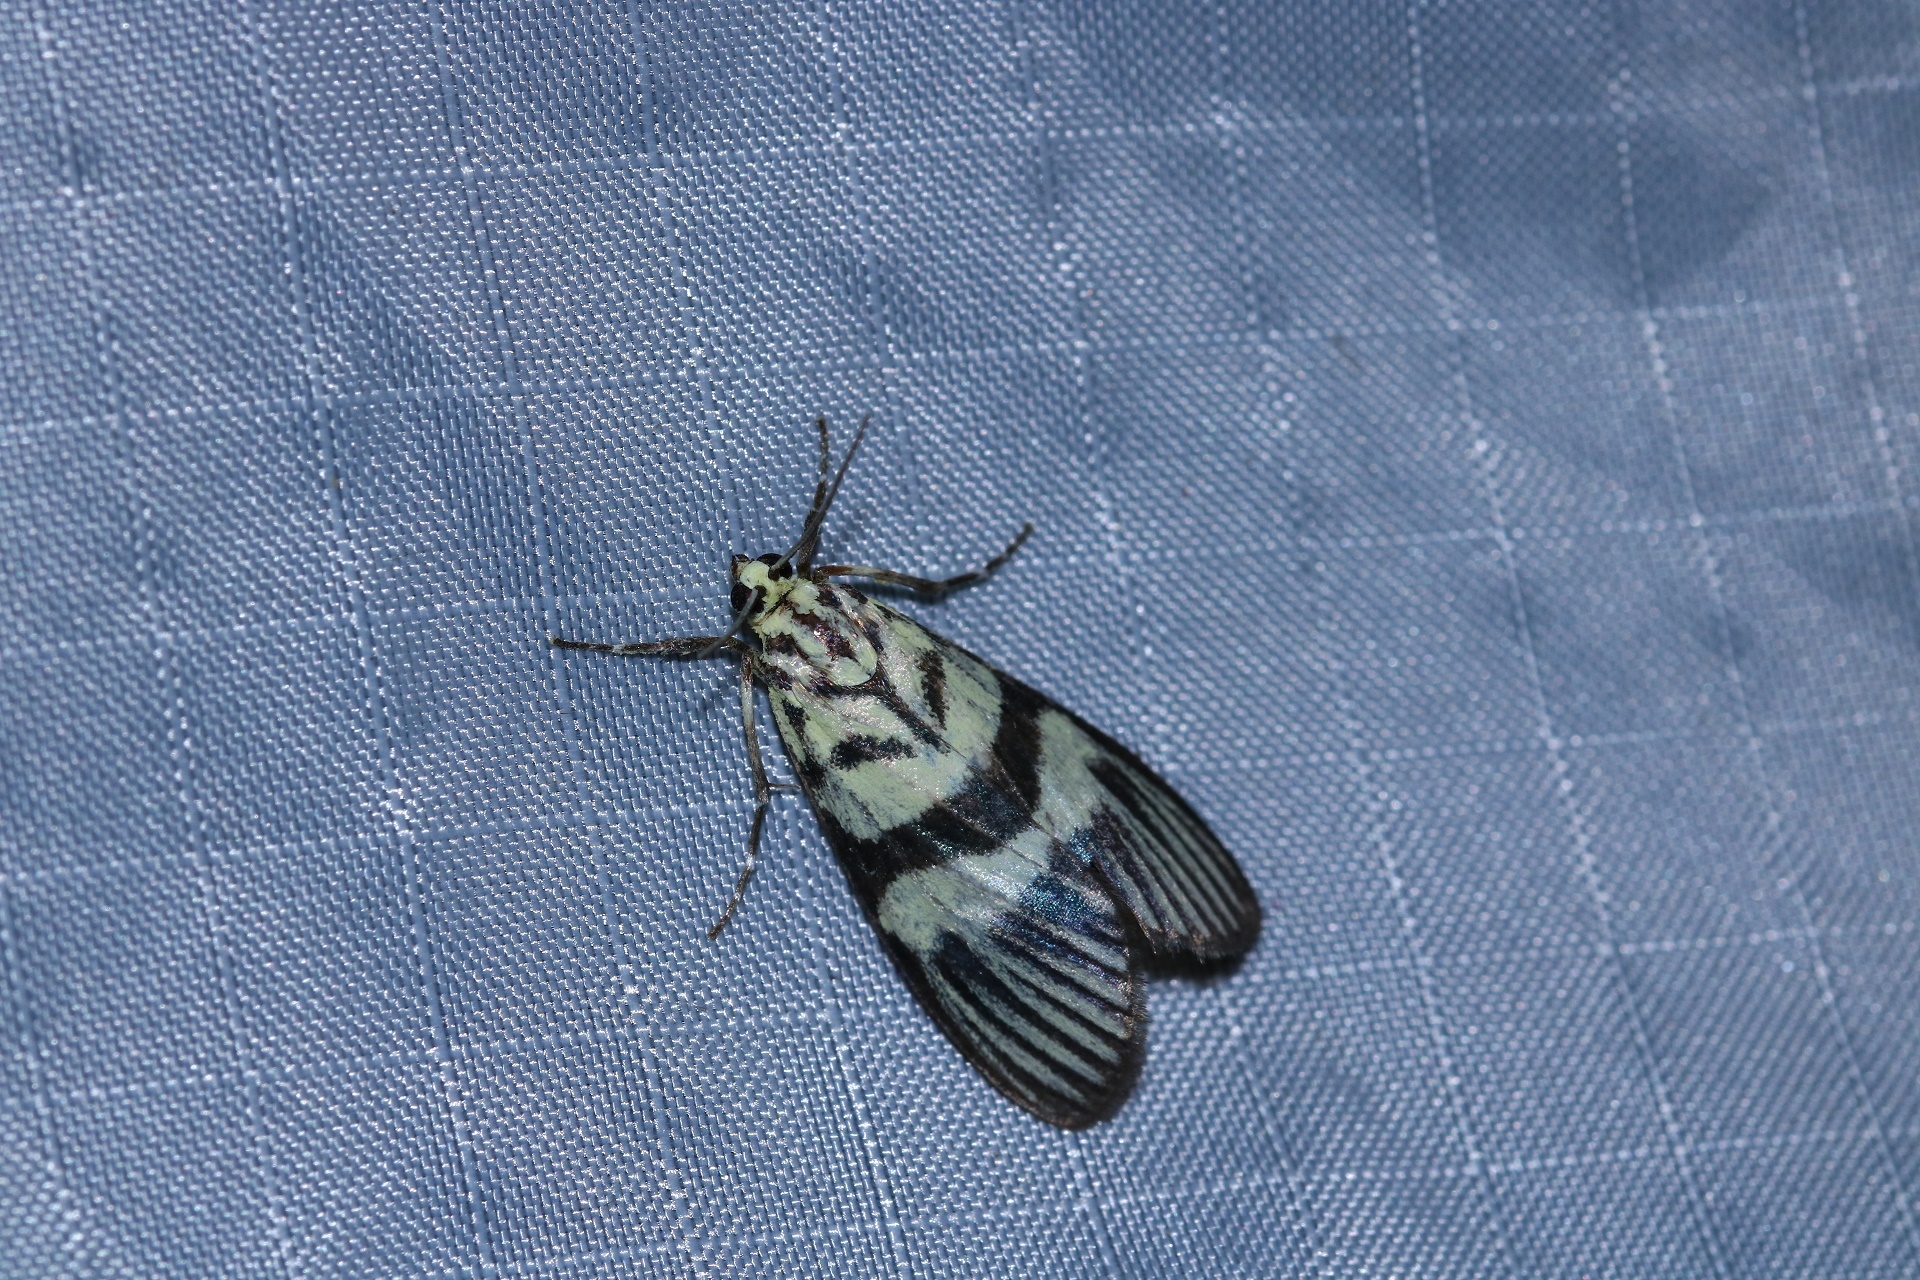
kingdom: Animalia
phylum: Arthropoda
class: Insecta
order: Lepidoptera
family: Crambidae
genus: Heortia
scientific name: Heortia vitessoides
